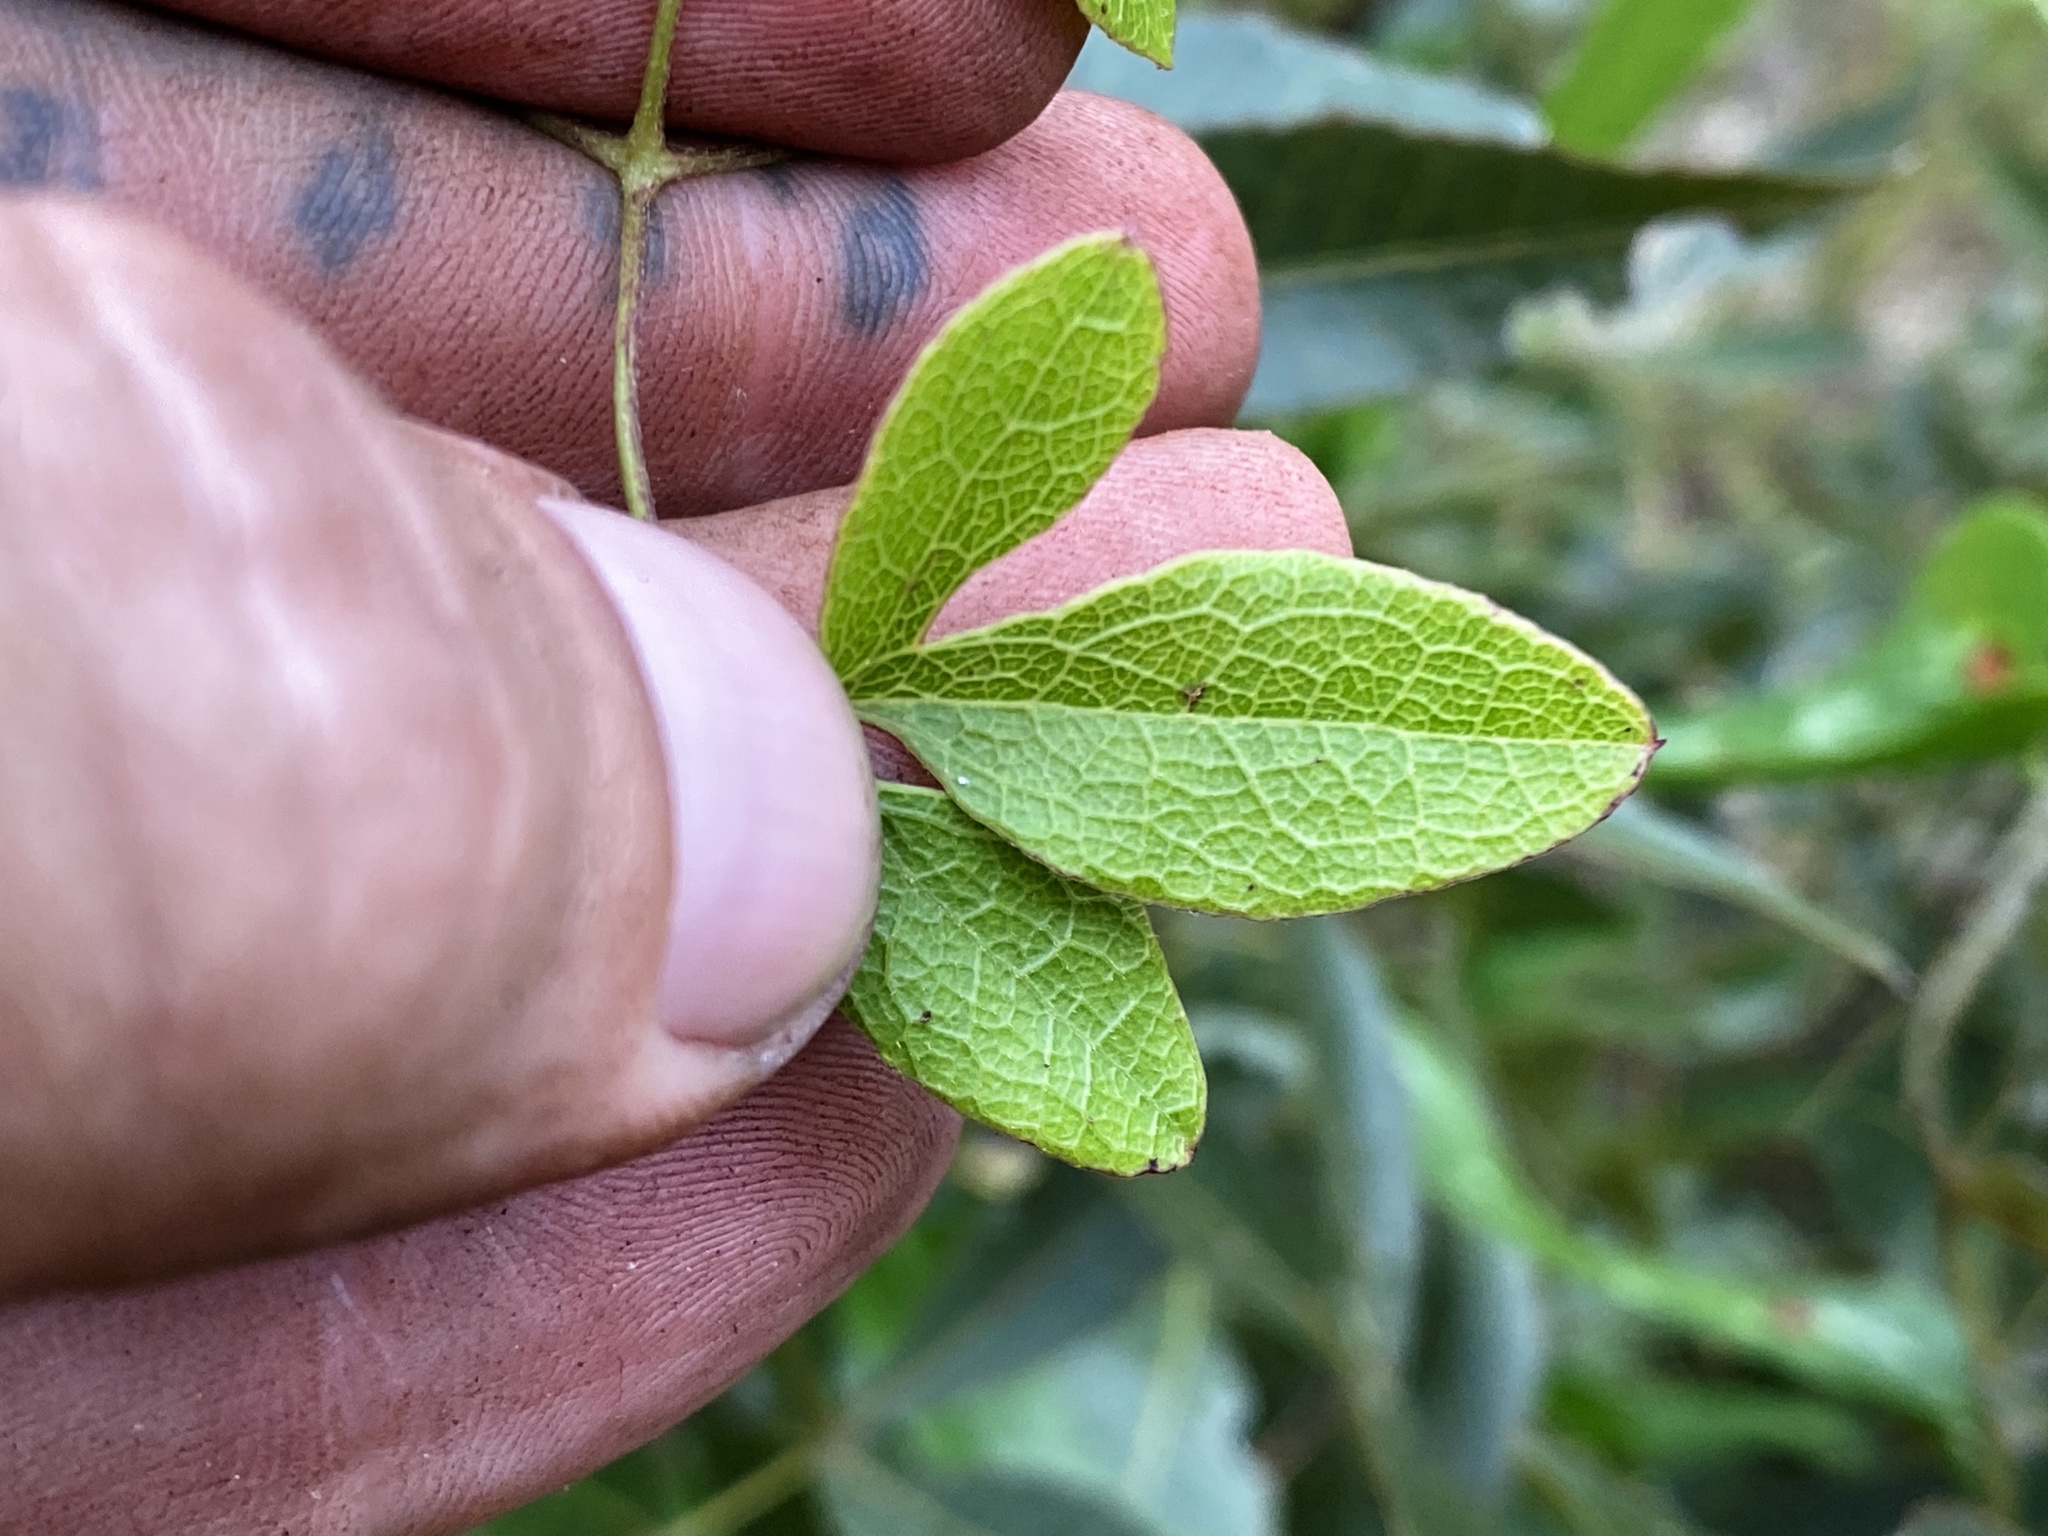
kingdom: Plantae
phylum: Tracheophyta
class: Magnoliopsida
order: Ranunculales
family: Ranunculaceae
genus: Clematis
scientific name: Clematis reticulata
